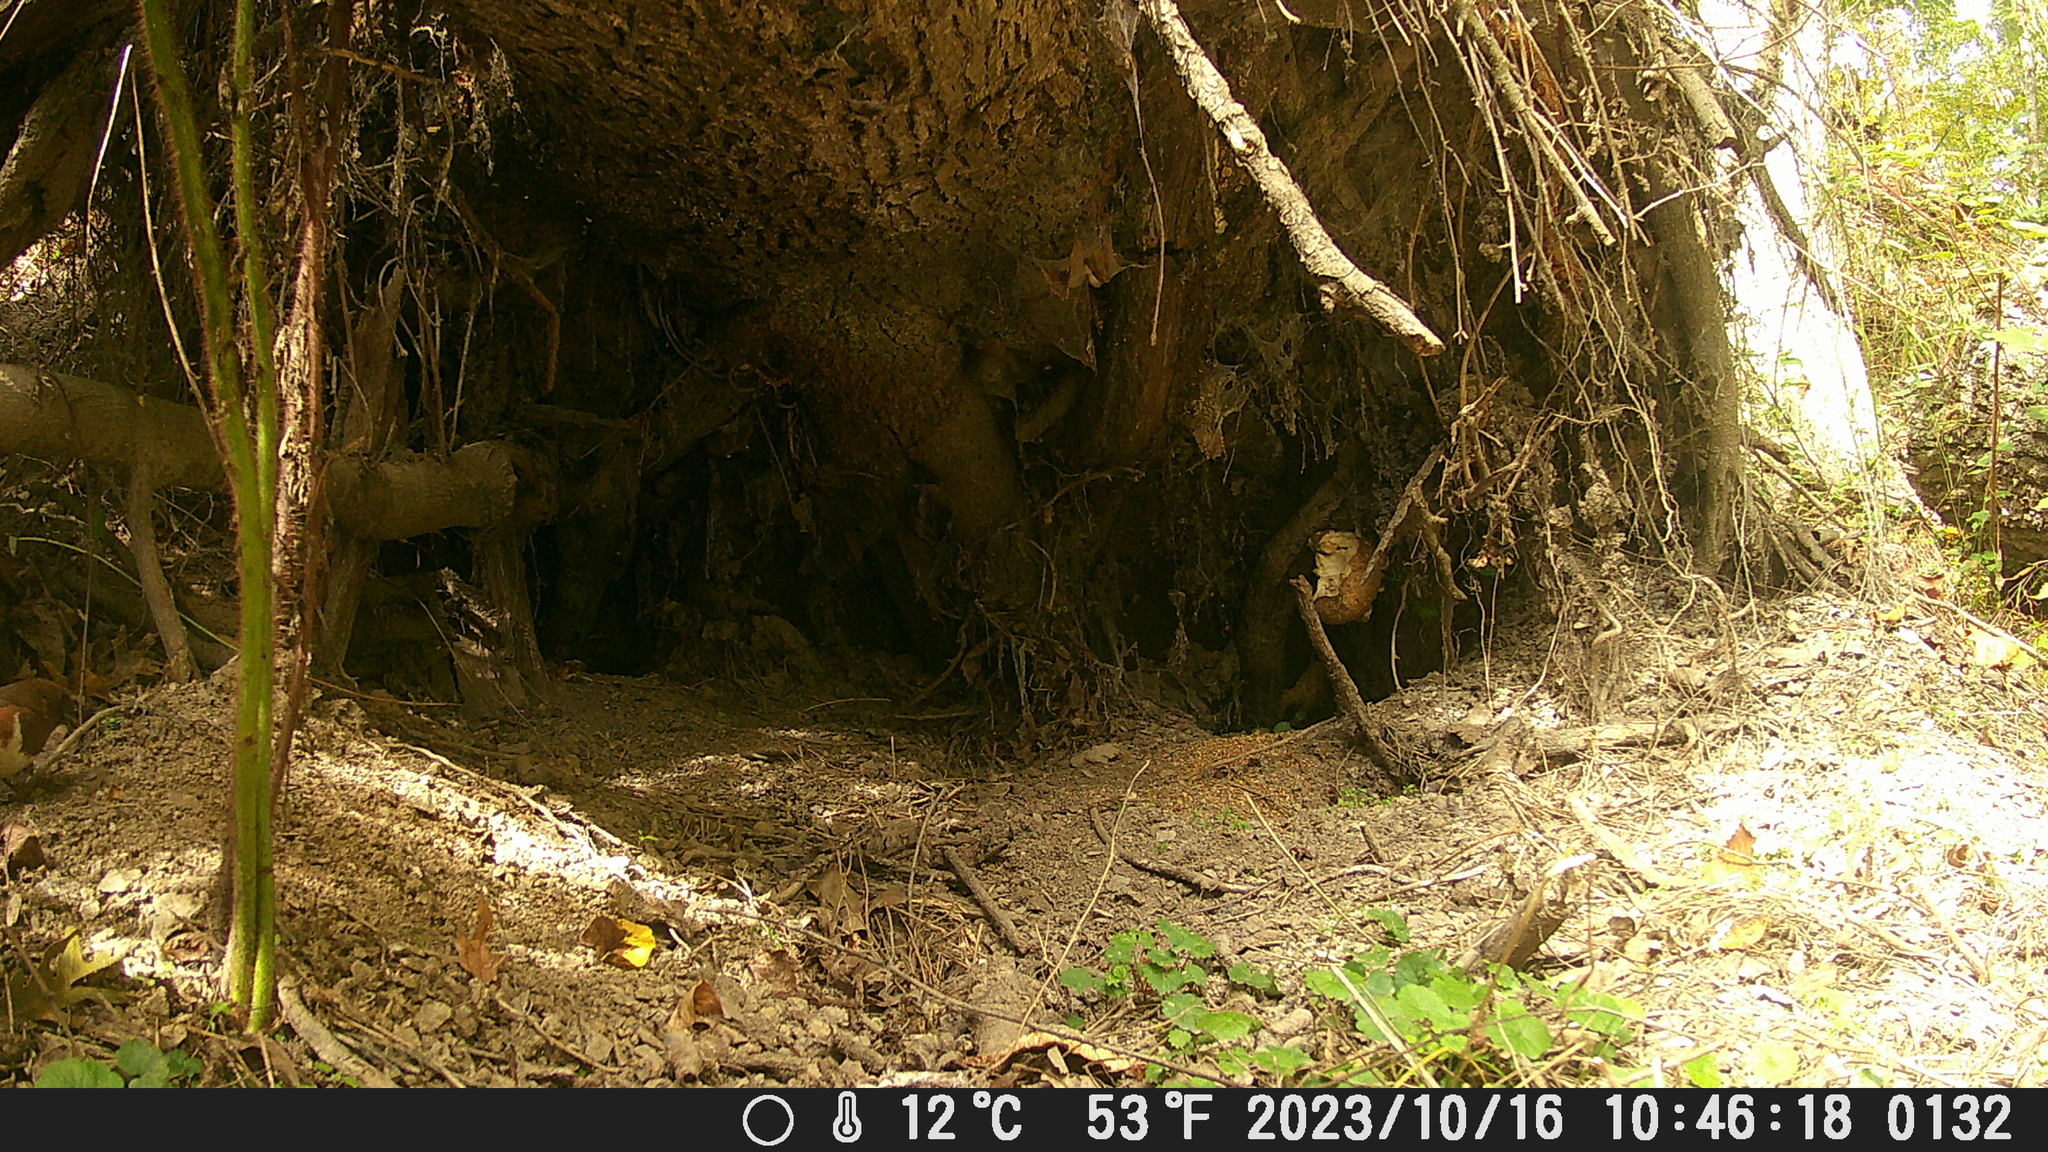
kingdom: Animalia
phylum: Chordata
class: Aves
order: Passeriformes
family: Passerellidae
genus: Pipilo
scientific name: Pipilo erythrophthalmus
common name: Eastern towhee
